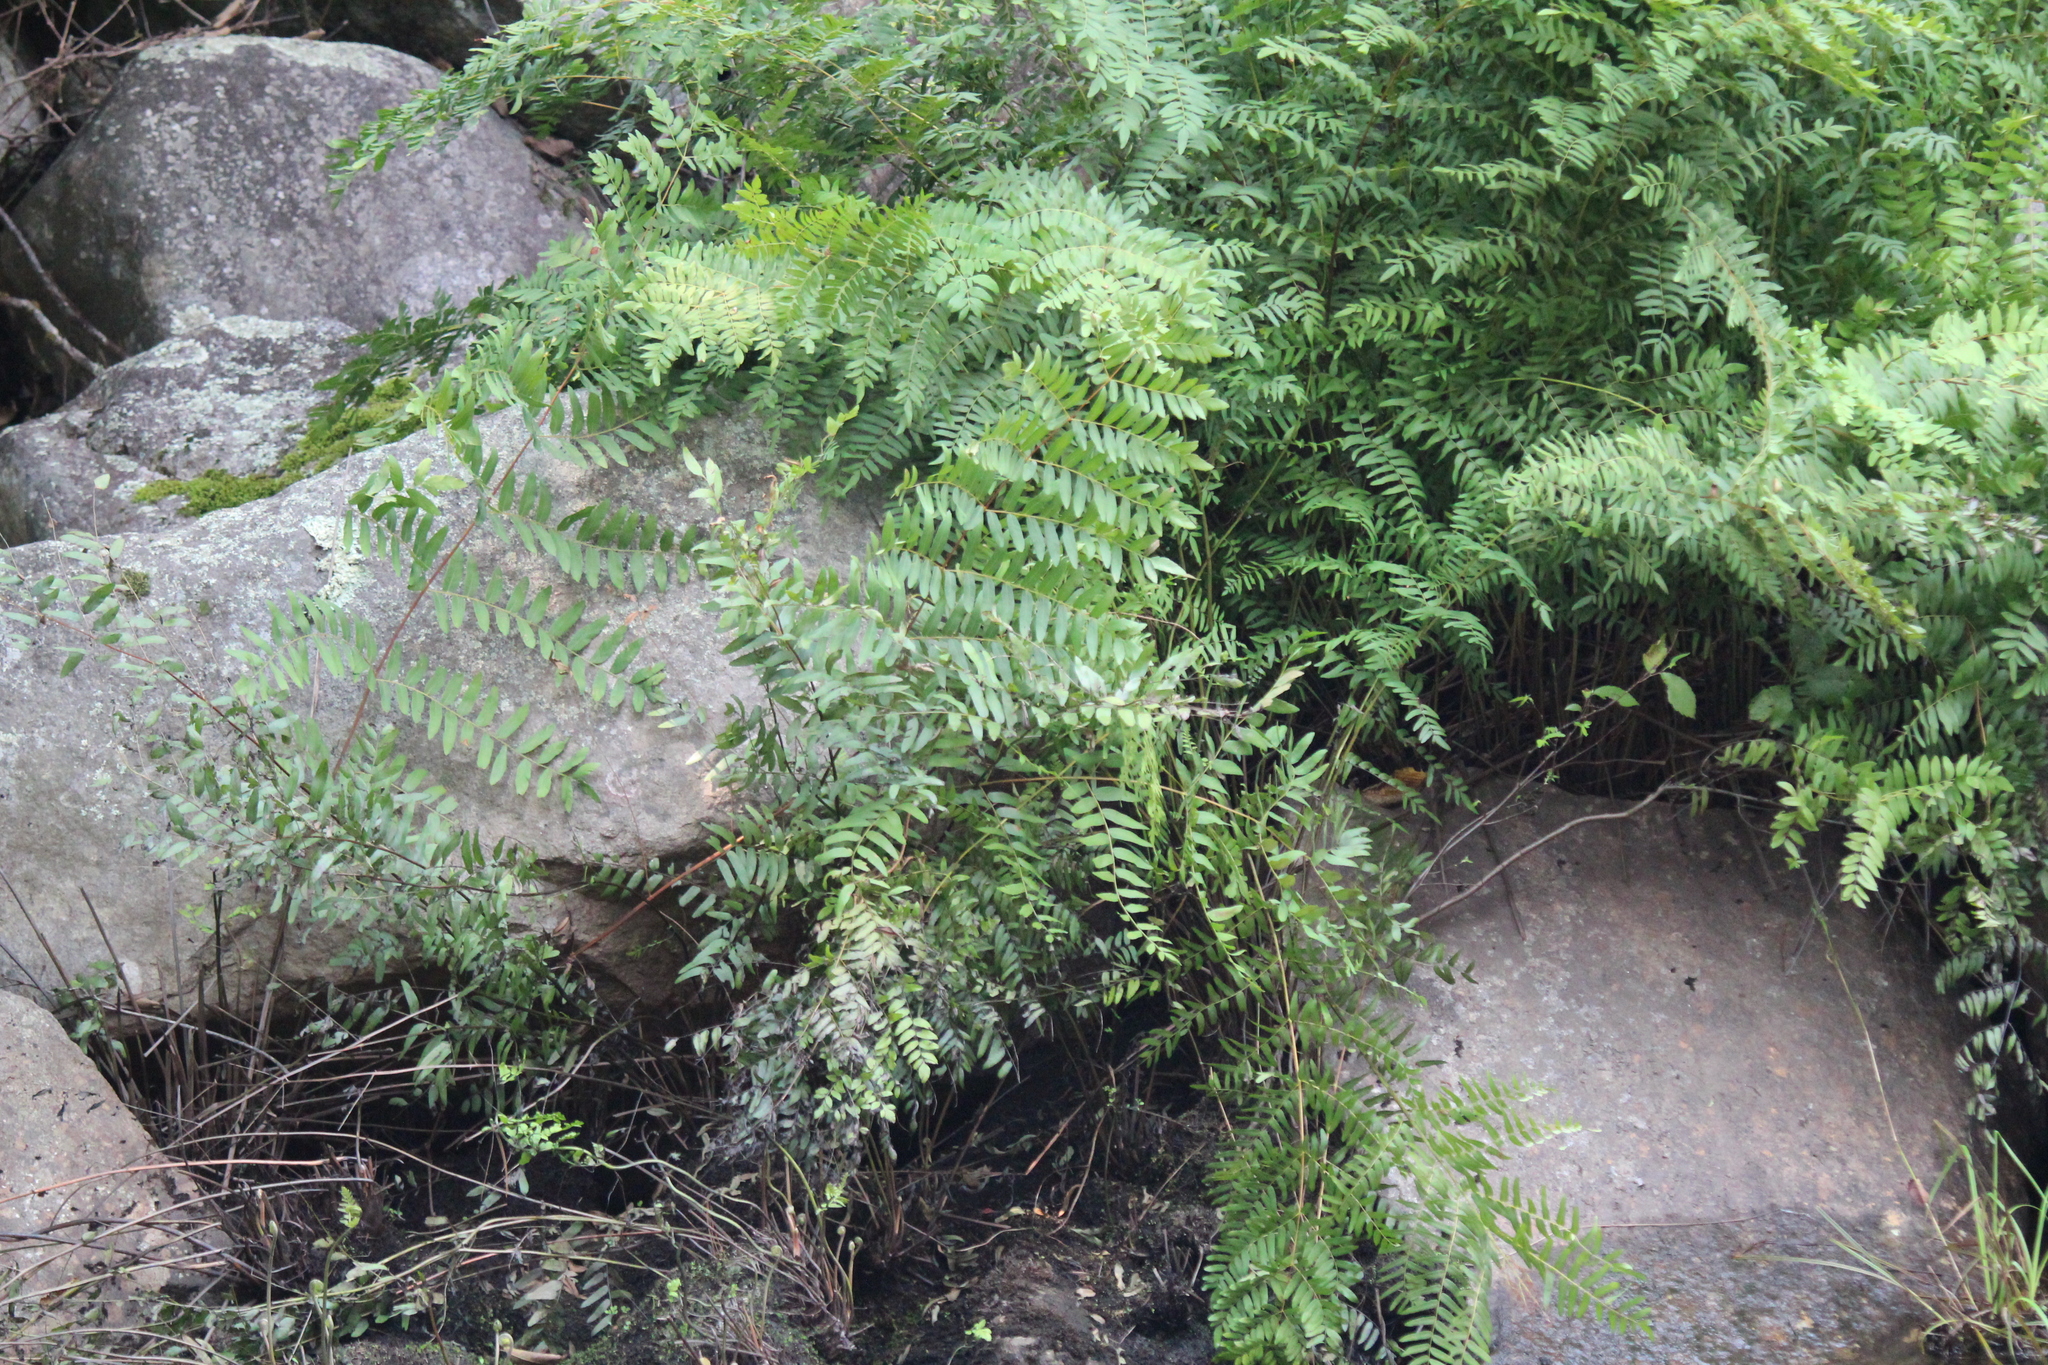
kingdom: Plantae
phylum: Tracheophyta
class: Polypodiopsida
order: Osmundales
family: Osmundaceae
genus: Osmunda
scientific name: Osmunda spectabilis
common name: American royal fern
